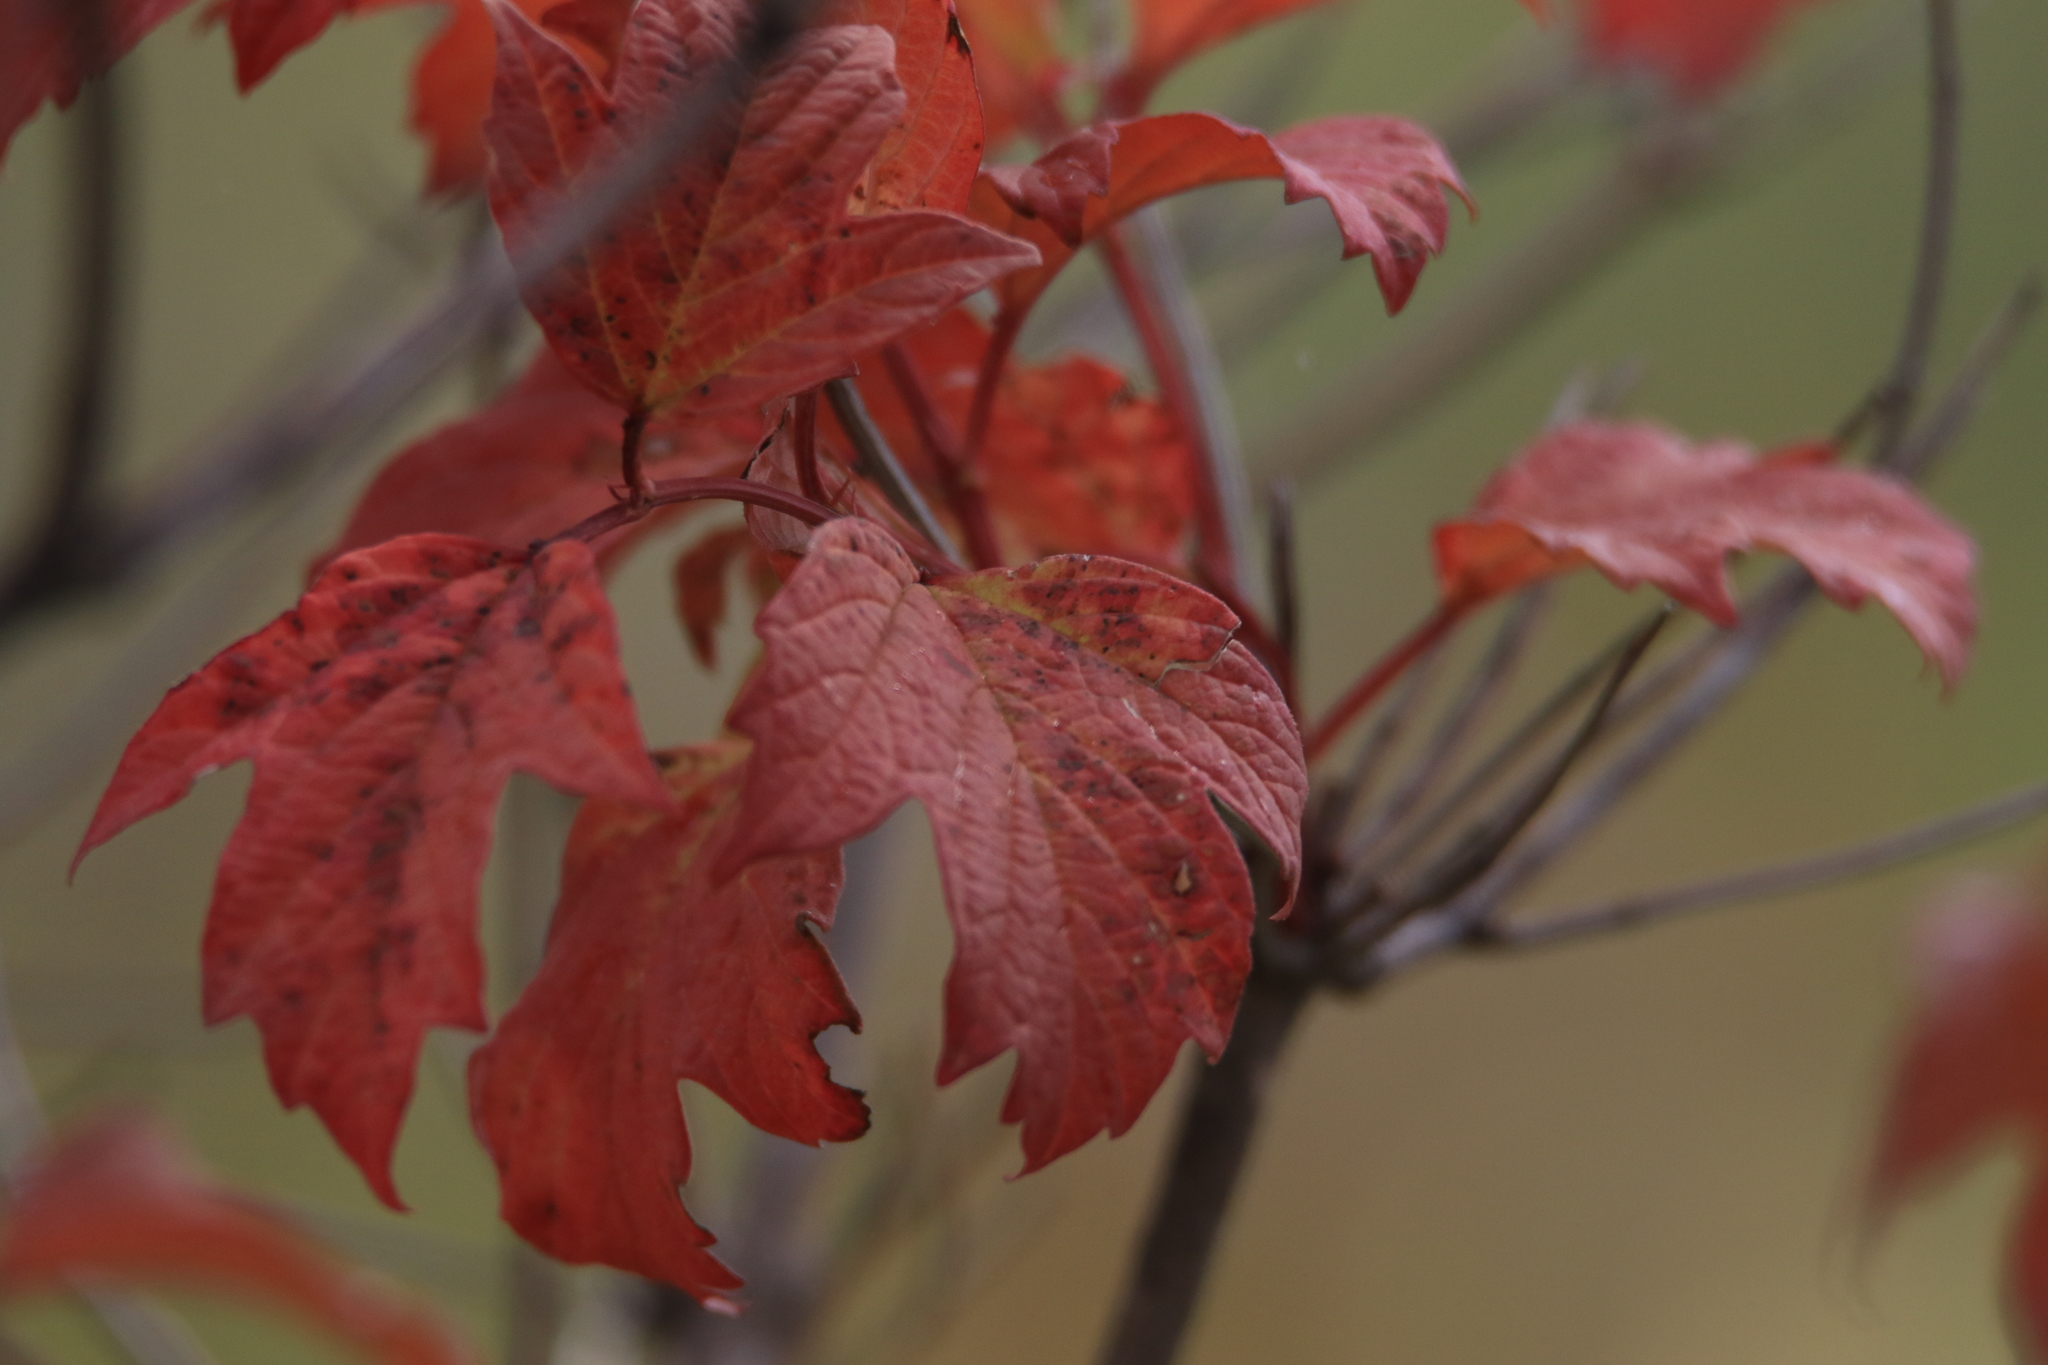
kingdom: Plantae
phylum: Tracheophyta
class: Magnoliopsida
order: Dipsacales
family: Viburnaceae
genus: Viburnum
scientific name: Viburnum opulus
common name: Guelder-rose
